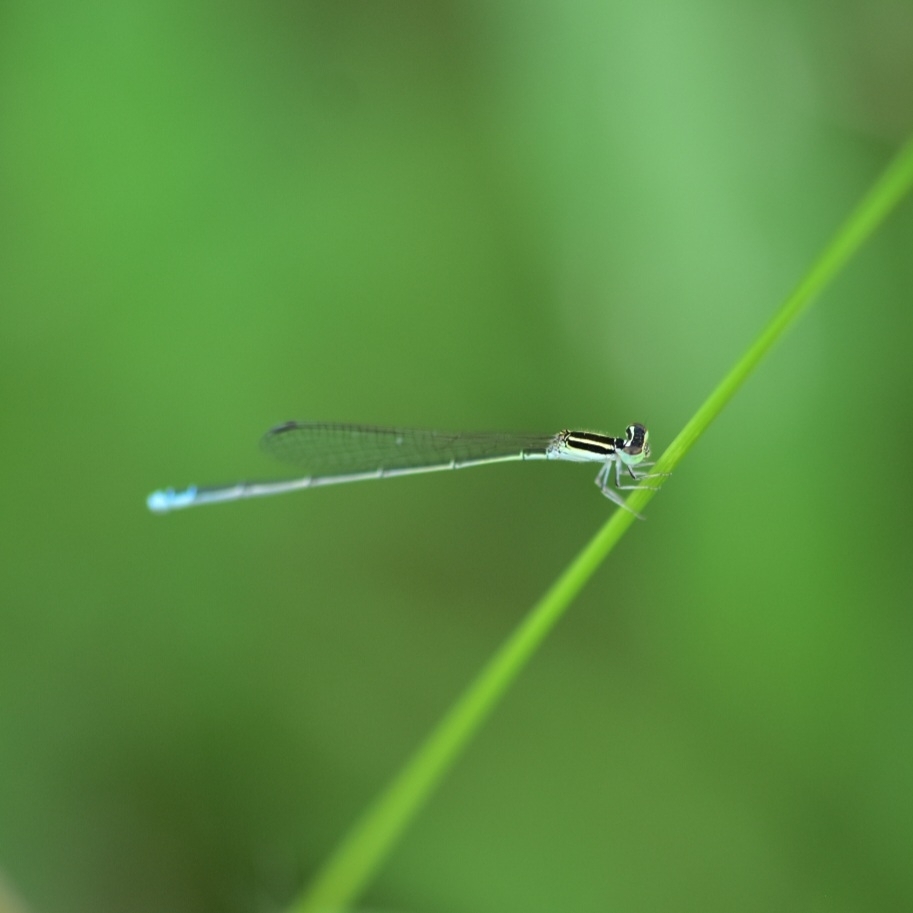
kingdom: Animalia
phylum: Arthropoda
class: Insecta
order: Odonata
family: Coenagrionidae
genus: Aciagrion
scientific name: Aciagrion occidentale
